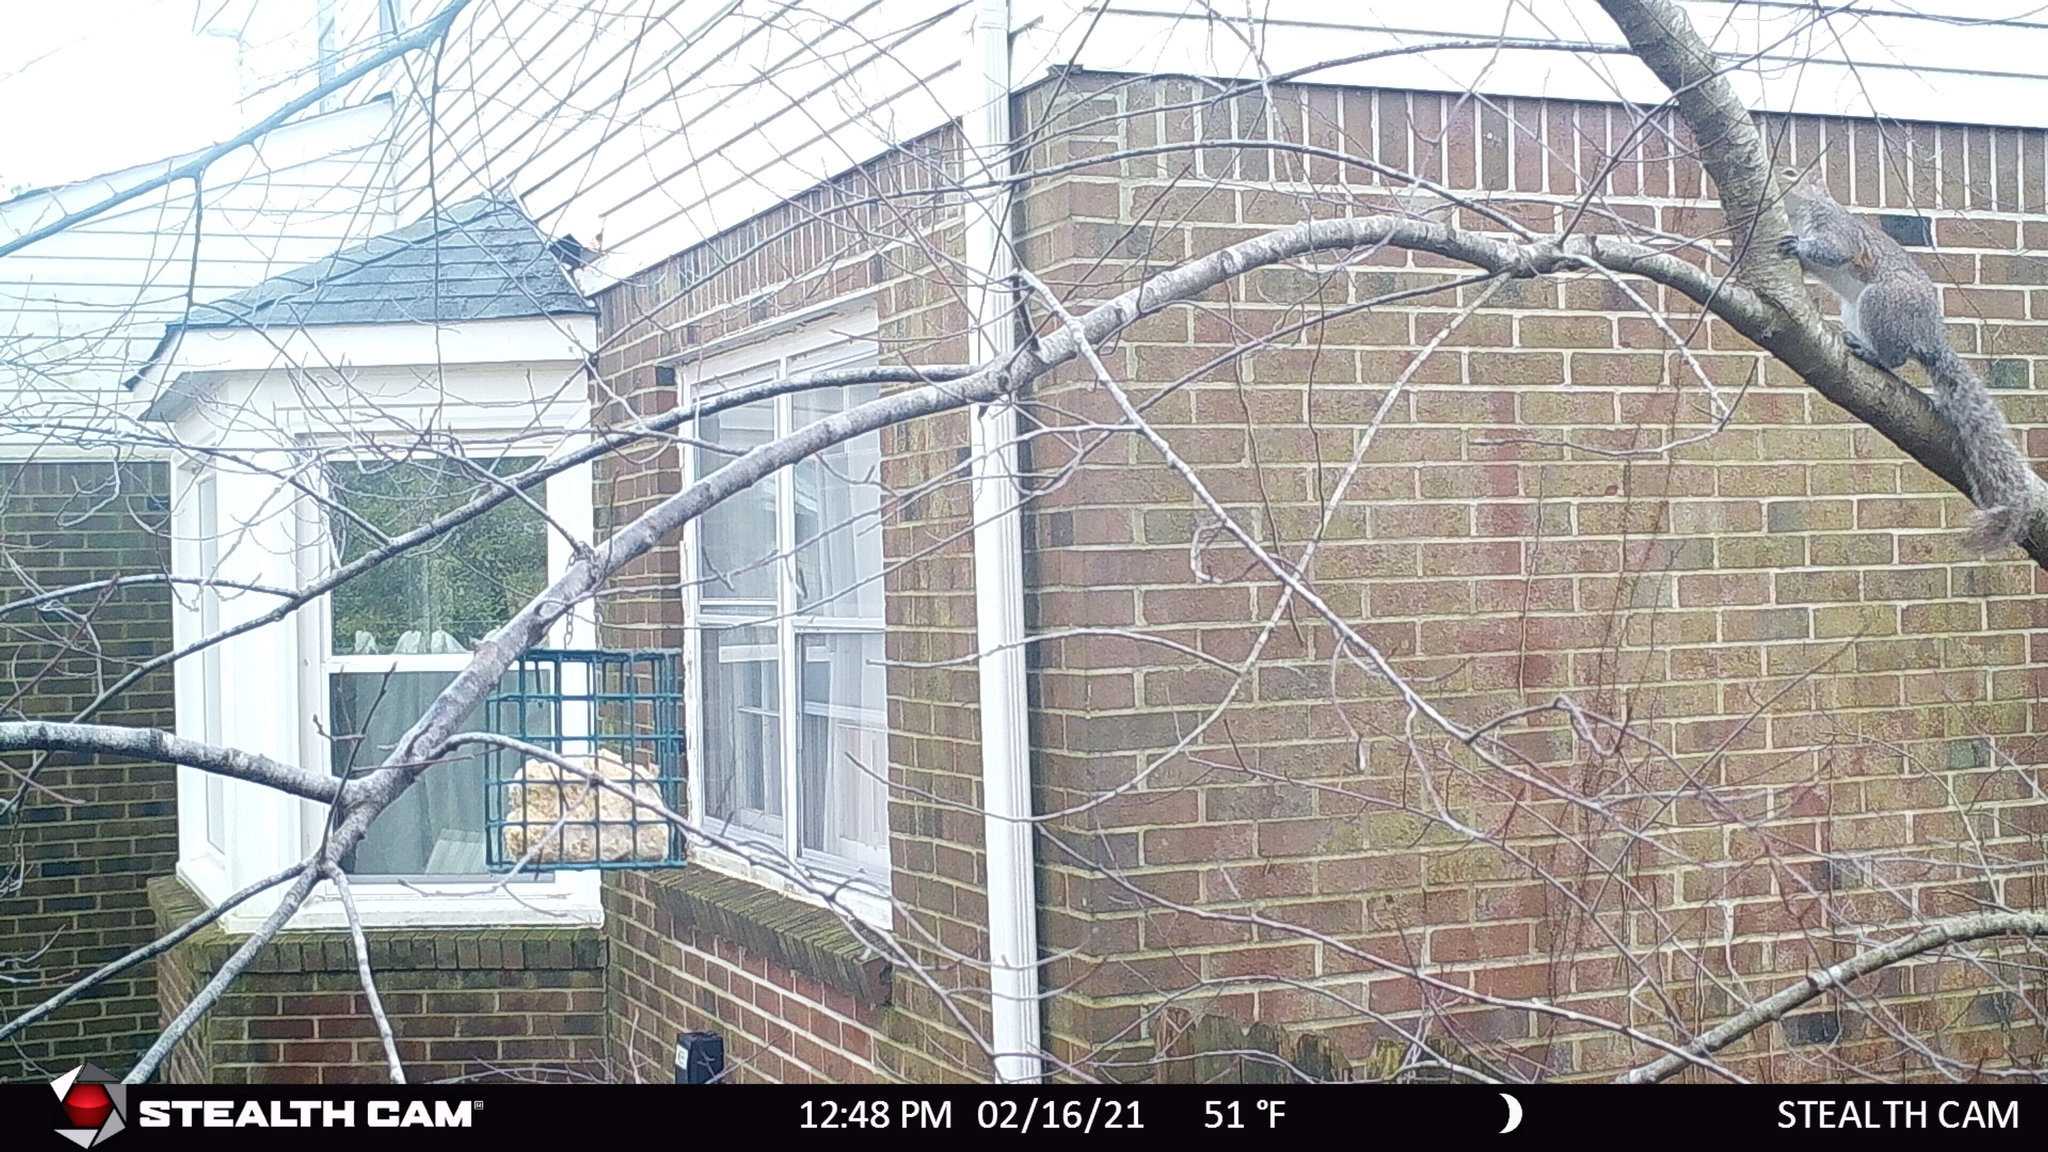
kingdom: Animalia
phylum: Chordata
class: Mammalia
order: Rodentia
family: Sciuridae
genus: Sciurus
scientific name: Sciurus carolinensis
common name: Eastern gray squirrel
